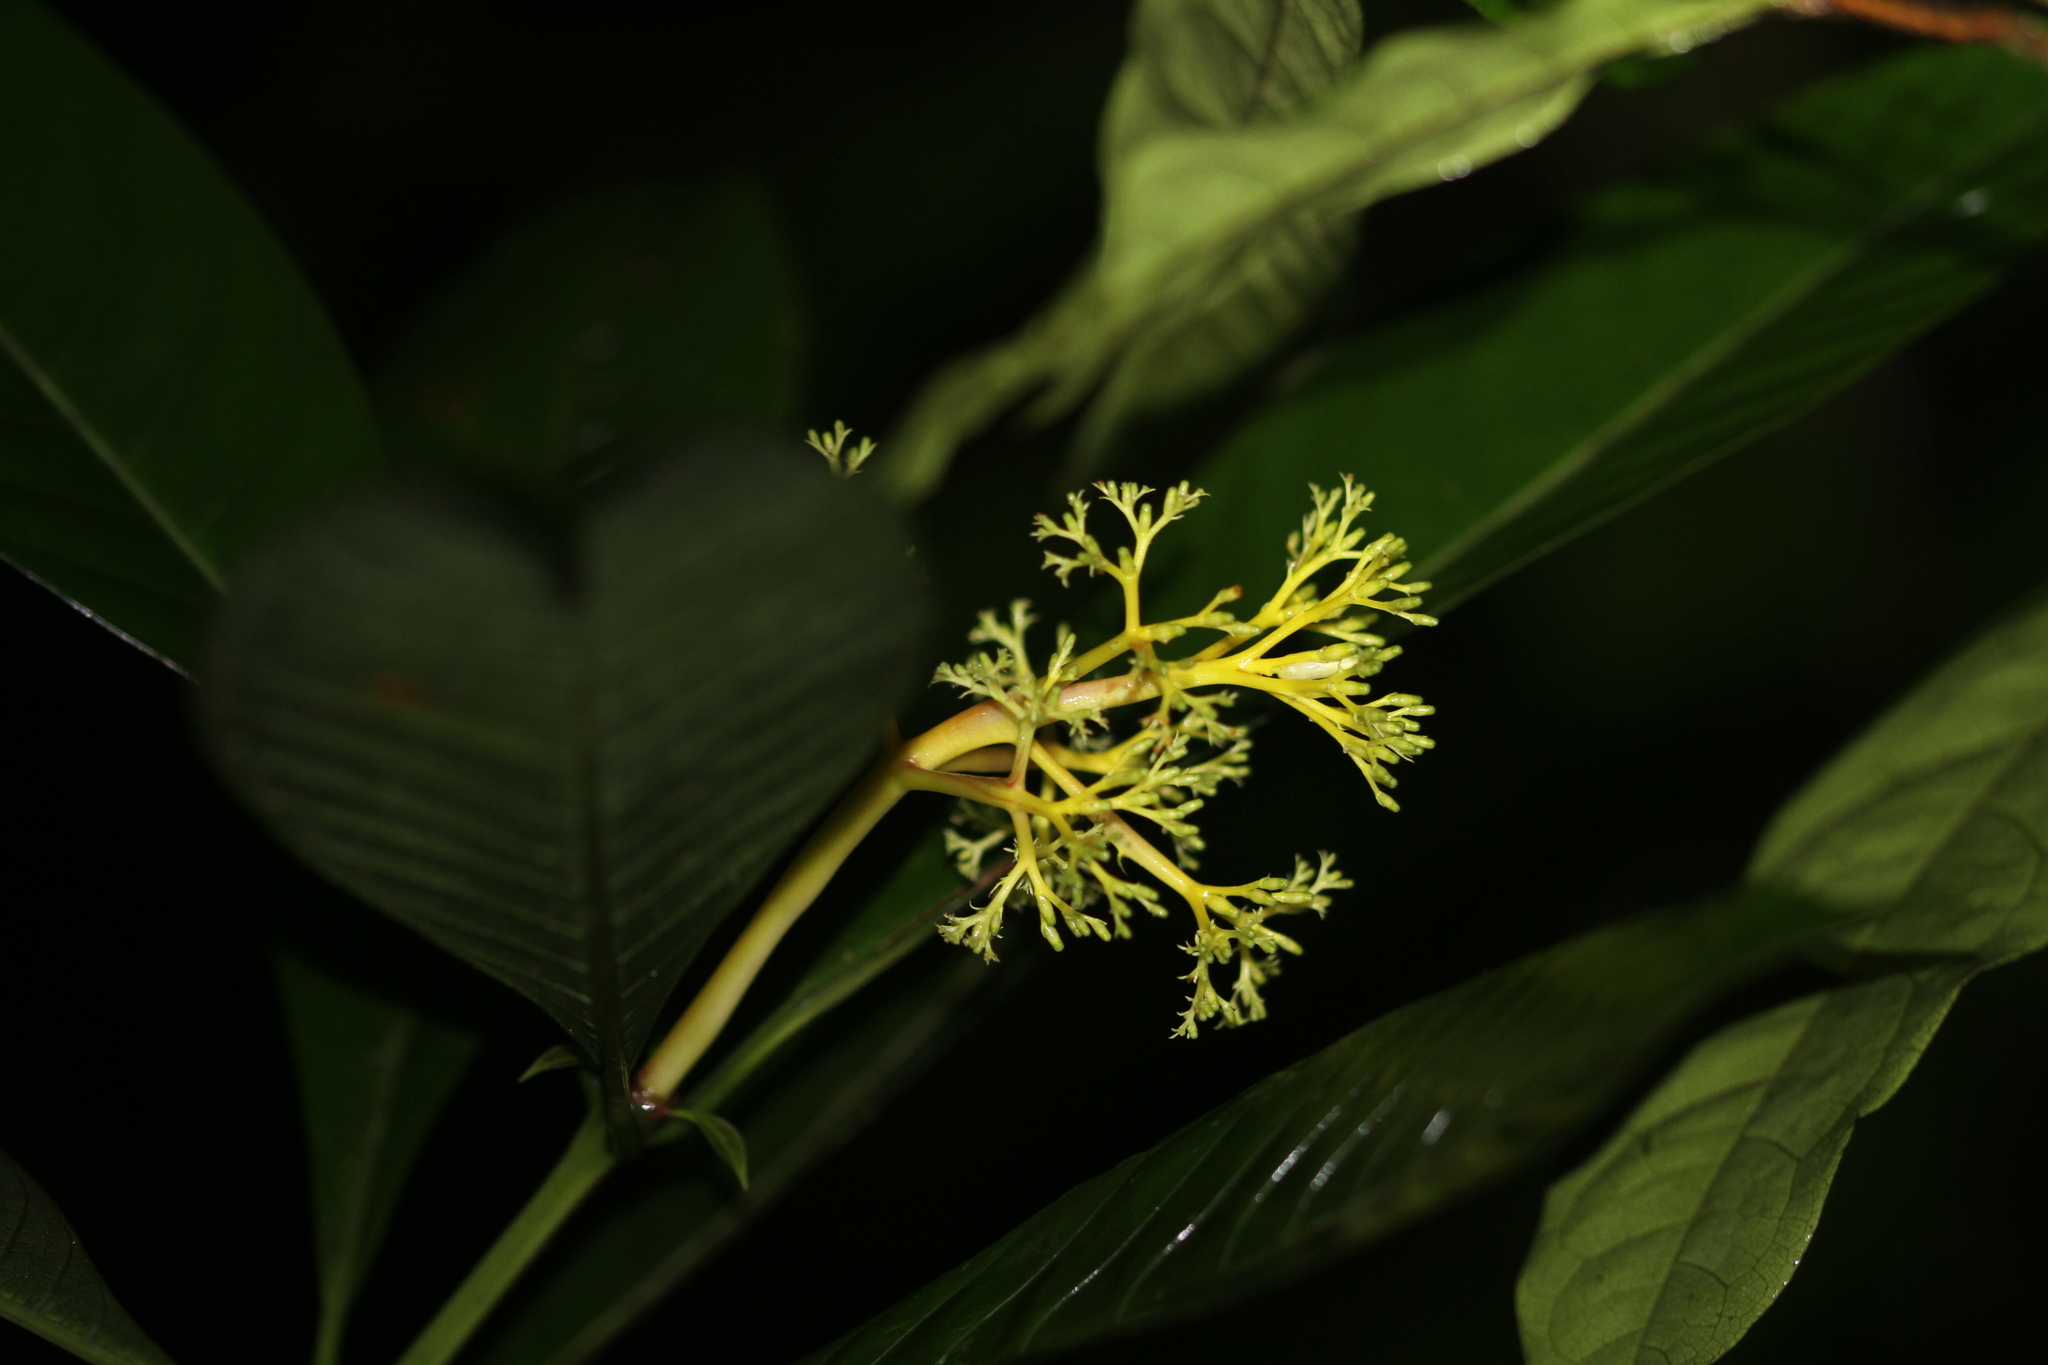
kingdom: Plantae
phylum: Tracheophyta
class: Magnoliopsida
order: Gentianales
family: Rubiaceae
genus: Palicourea
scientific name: Palicourea quadrifolia
